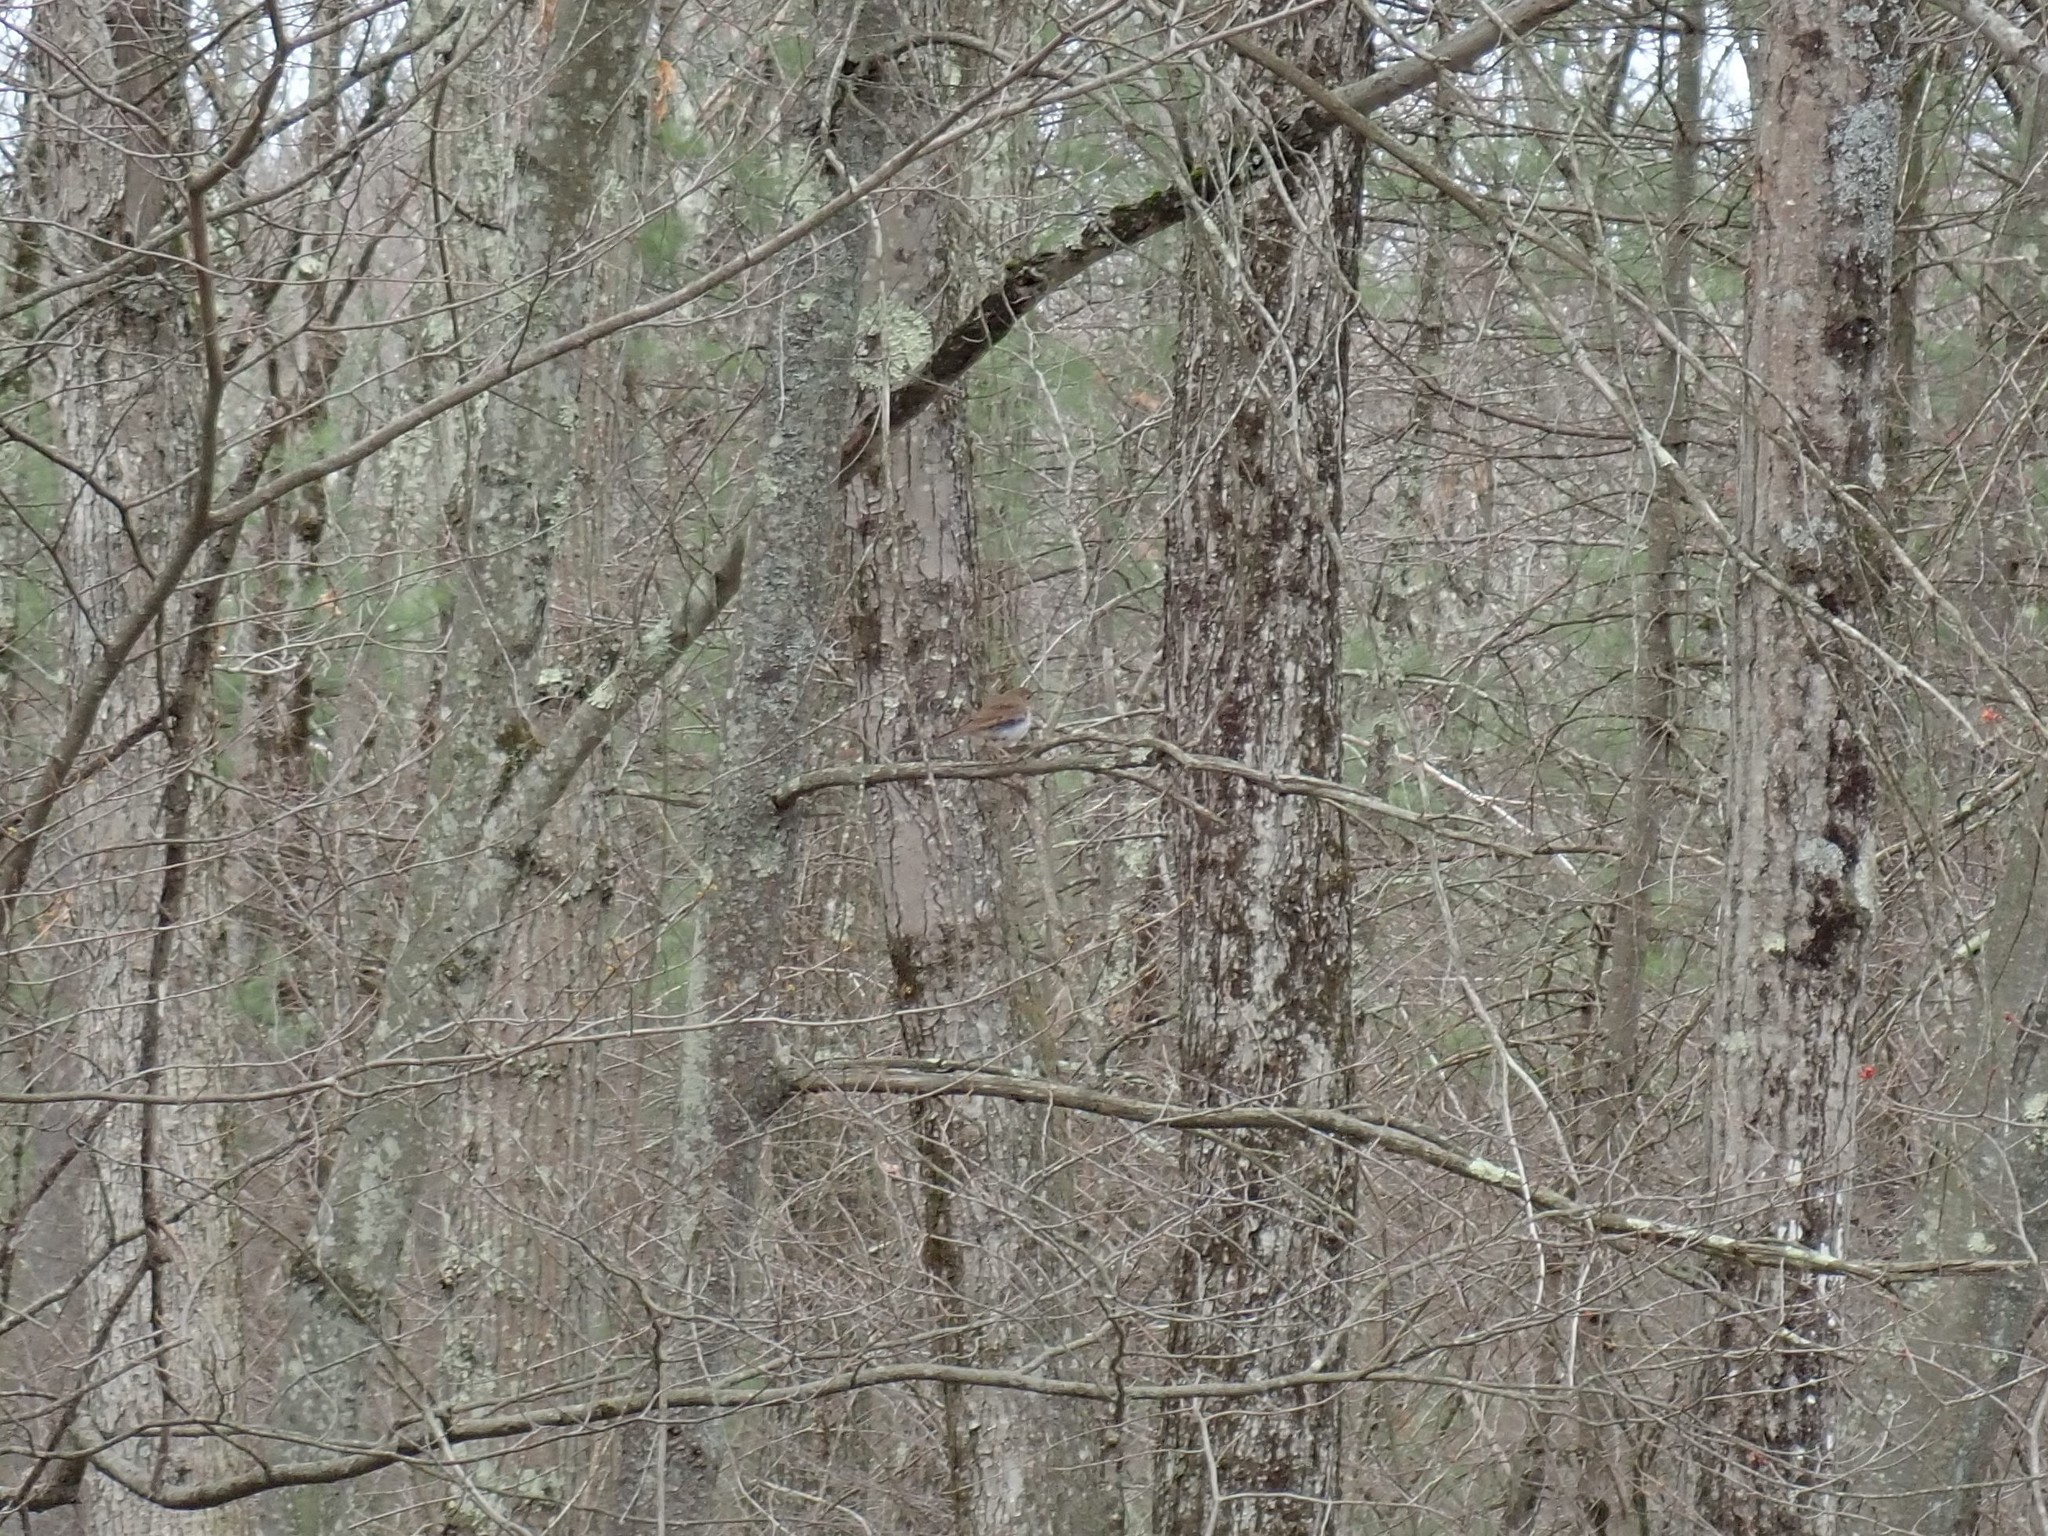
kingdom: Animalia
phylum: Chordata
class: Aves
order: Passeriformes
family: Turdidae
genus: Catharus
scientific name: Catharus guttatus
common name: Hermit thrush
